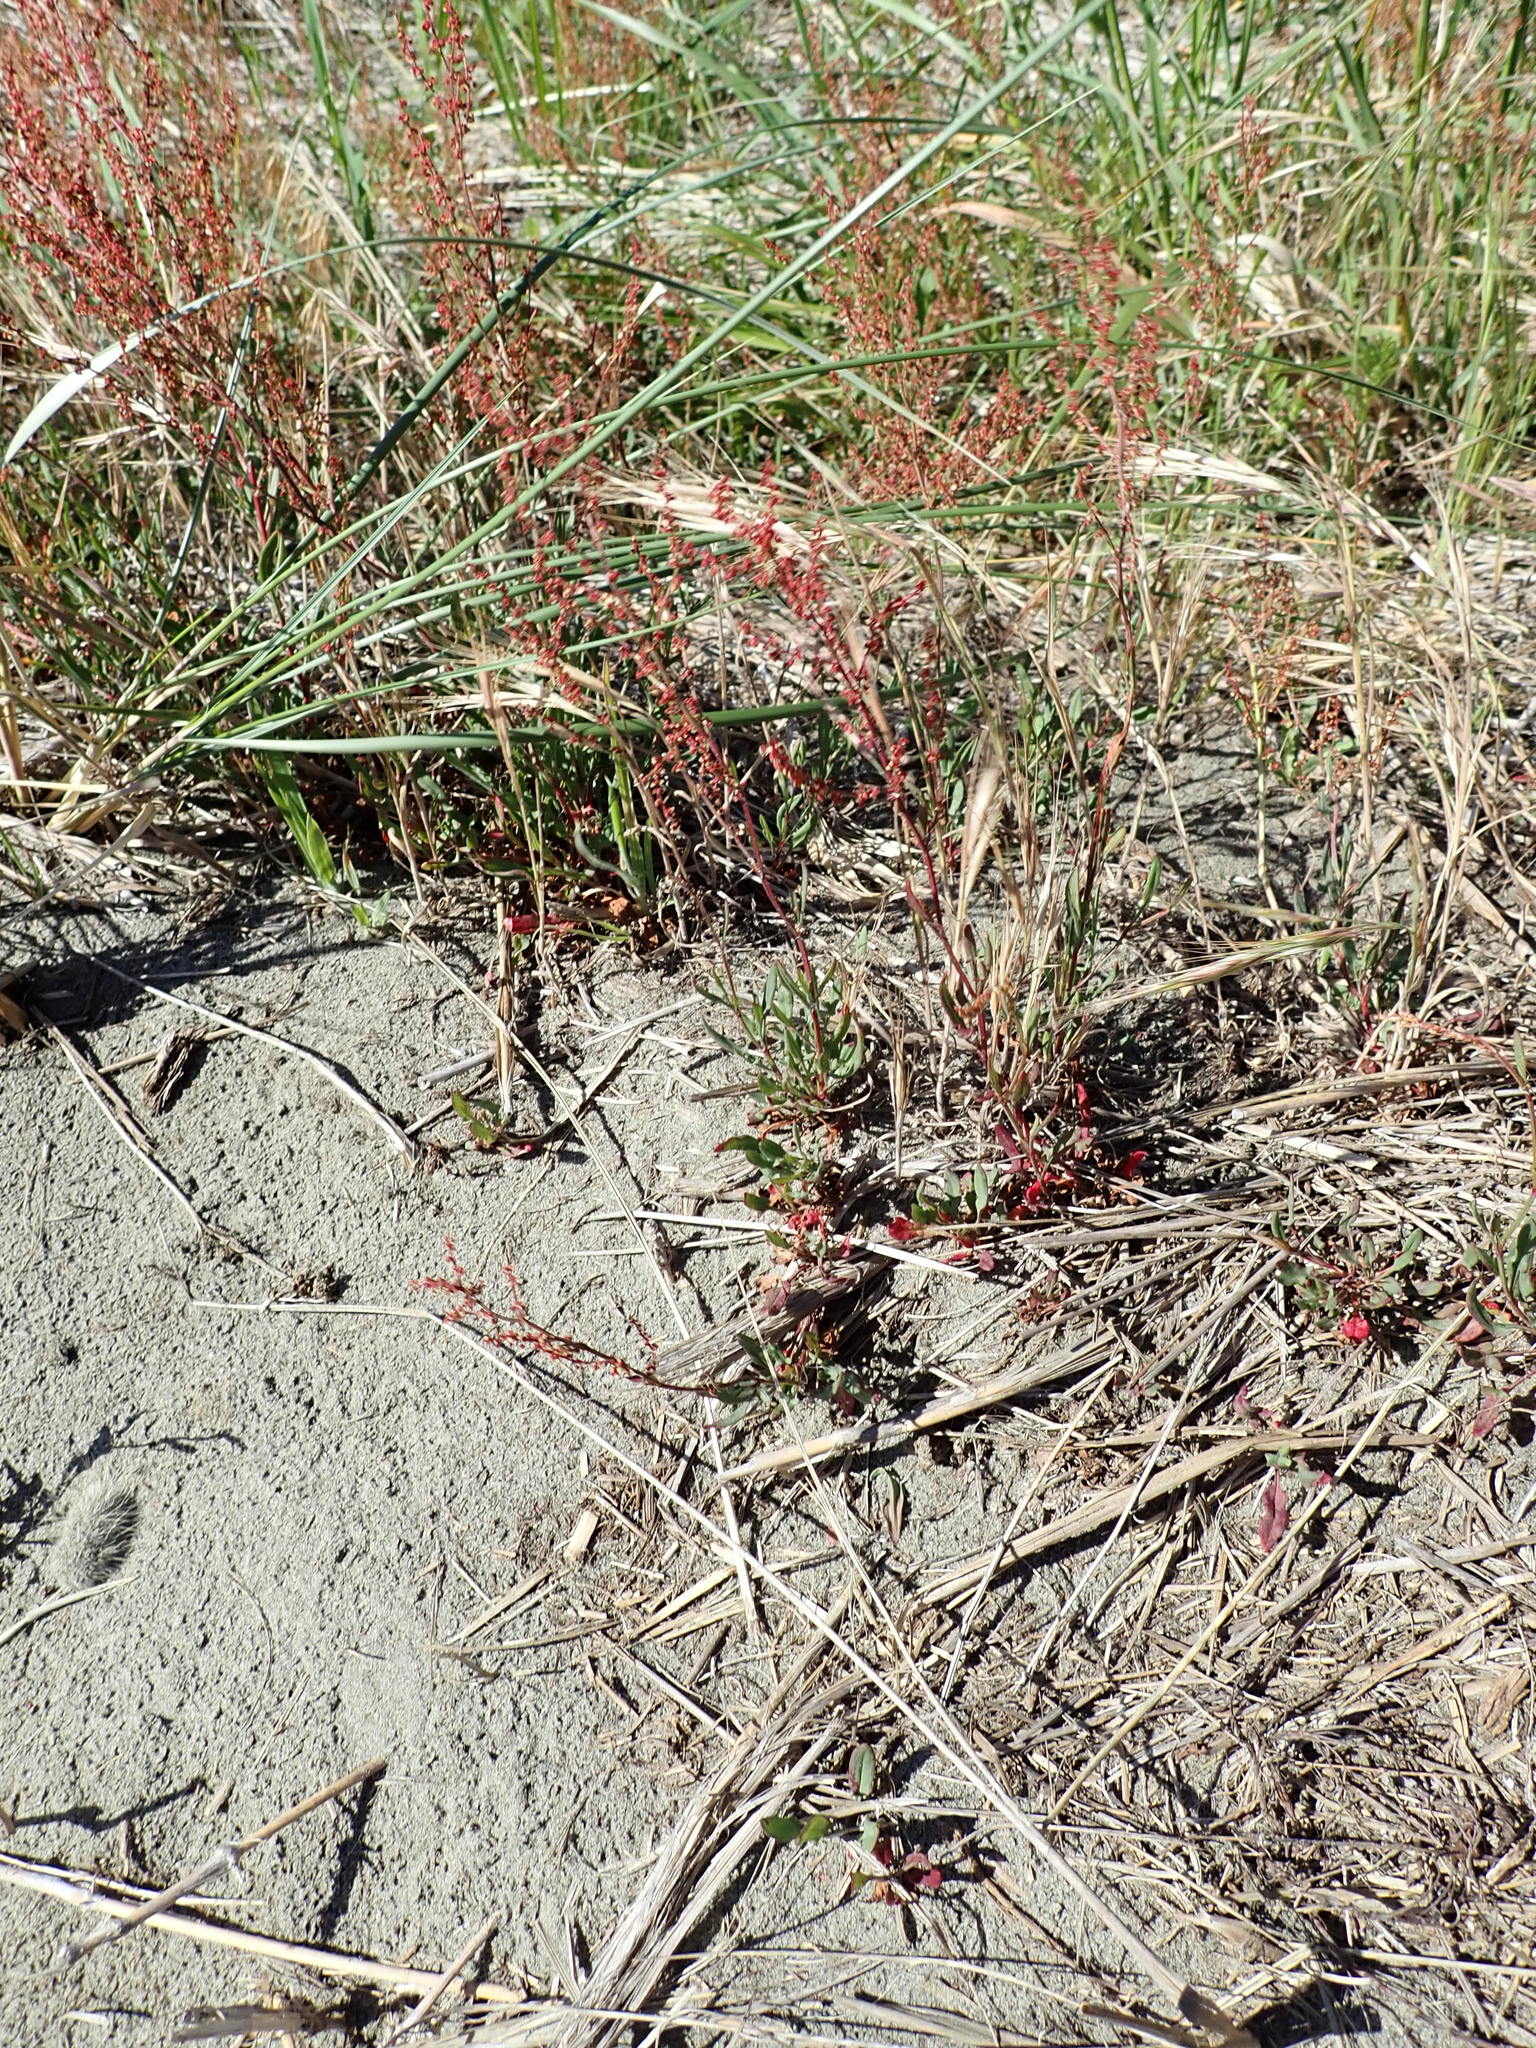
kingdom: Plantae
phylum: Tracheophyta
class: Magnoliopsida
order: Caryophyllales
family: Polygonaceae
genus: Rumex
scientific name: Rumex acetosella
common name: Common sheep sorrel
